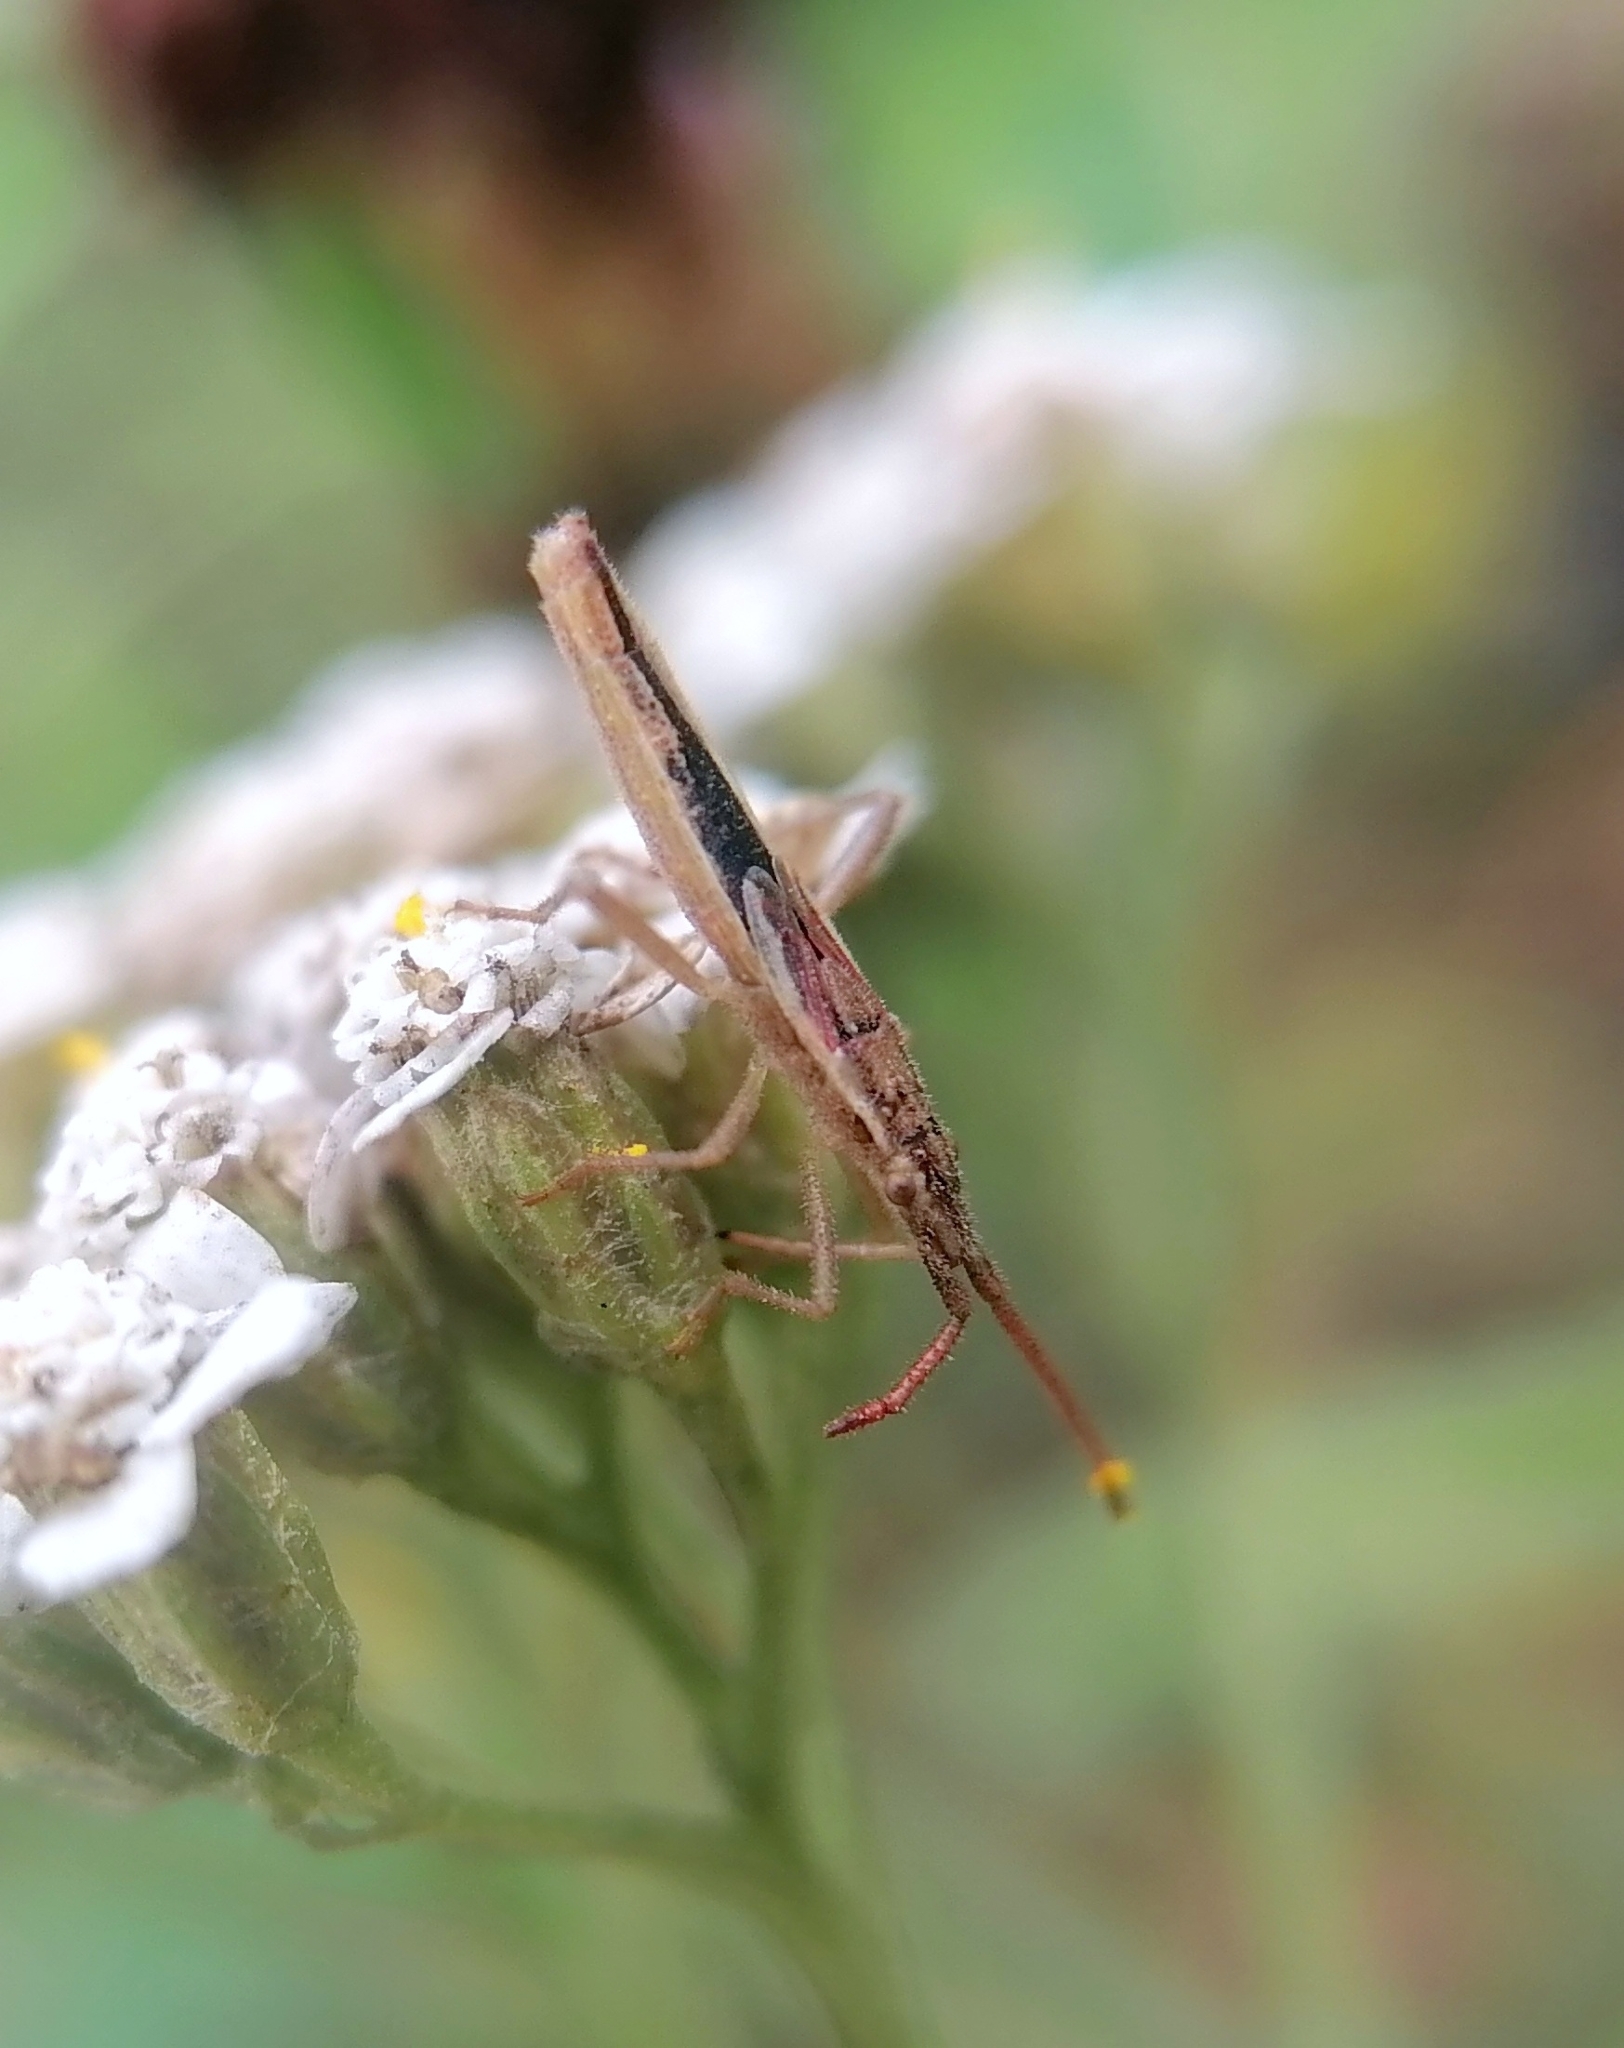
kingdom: Animalia
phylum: Arthropoda
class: Insecta
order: Hemiptera
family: Rhopalidae
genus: Myrmus
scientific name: Myrmus miriformis
